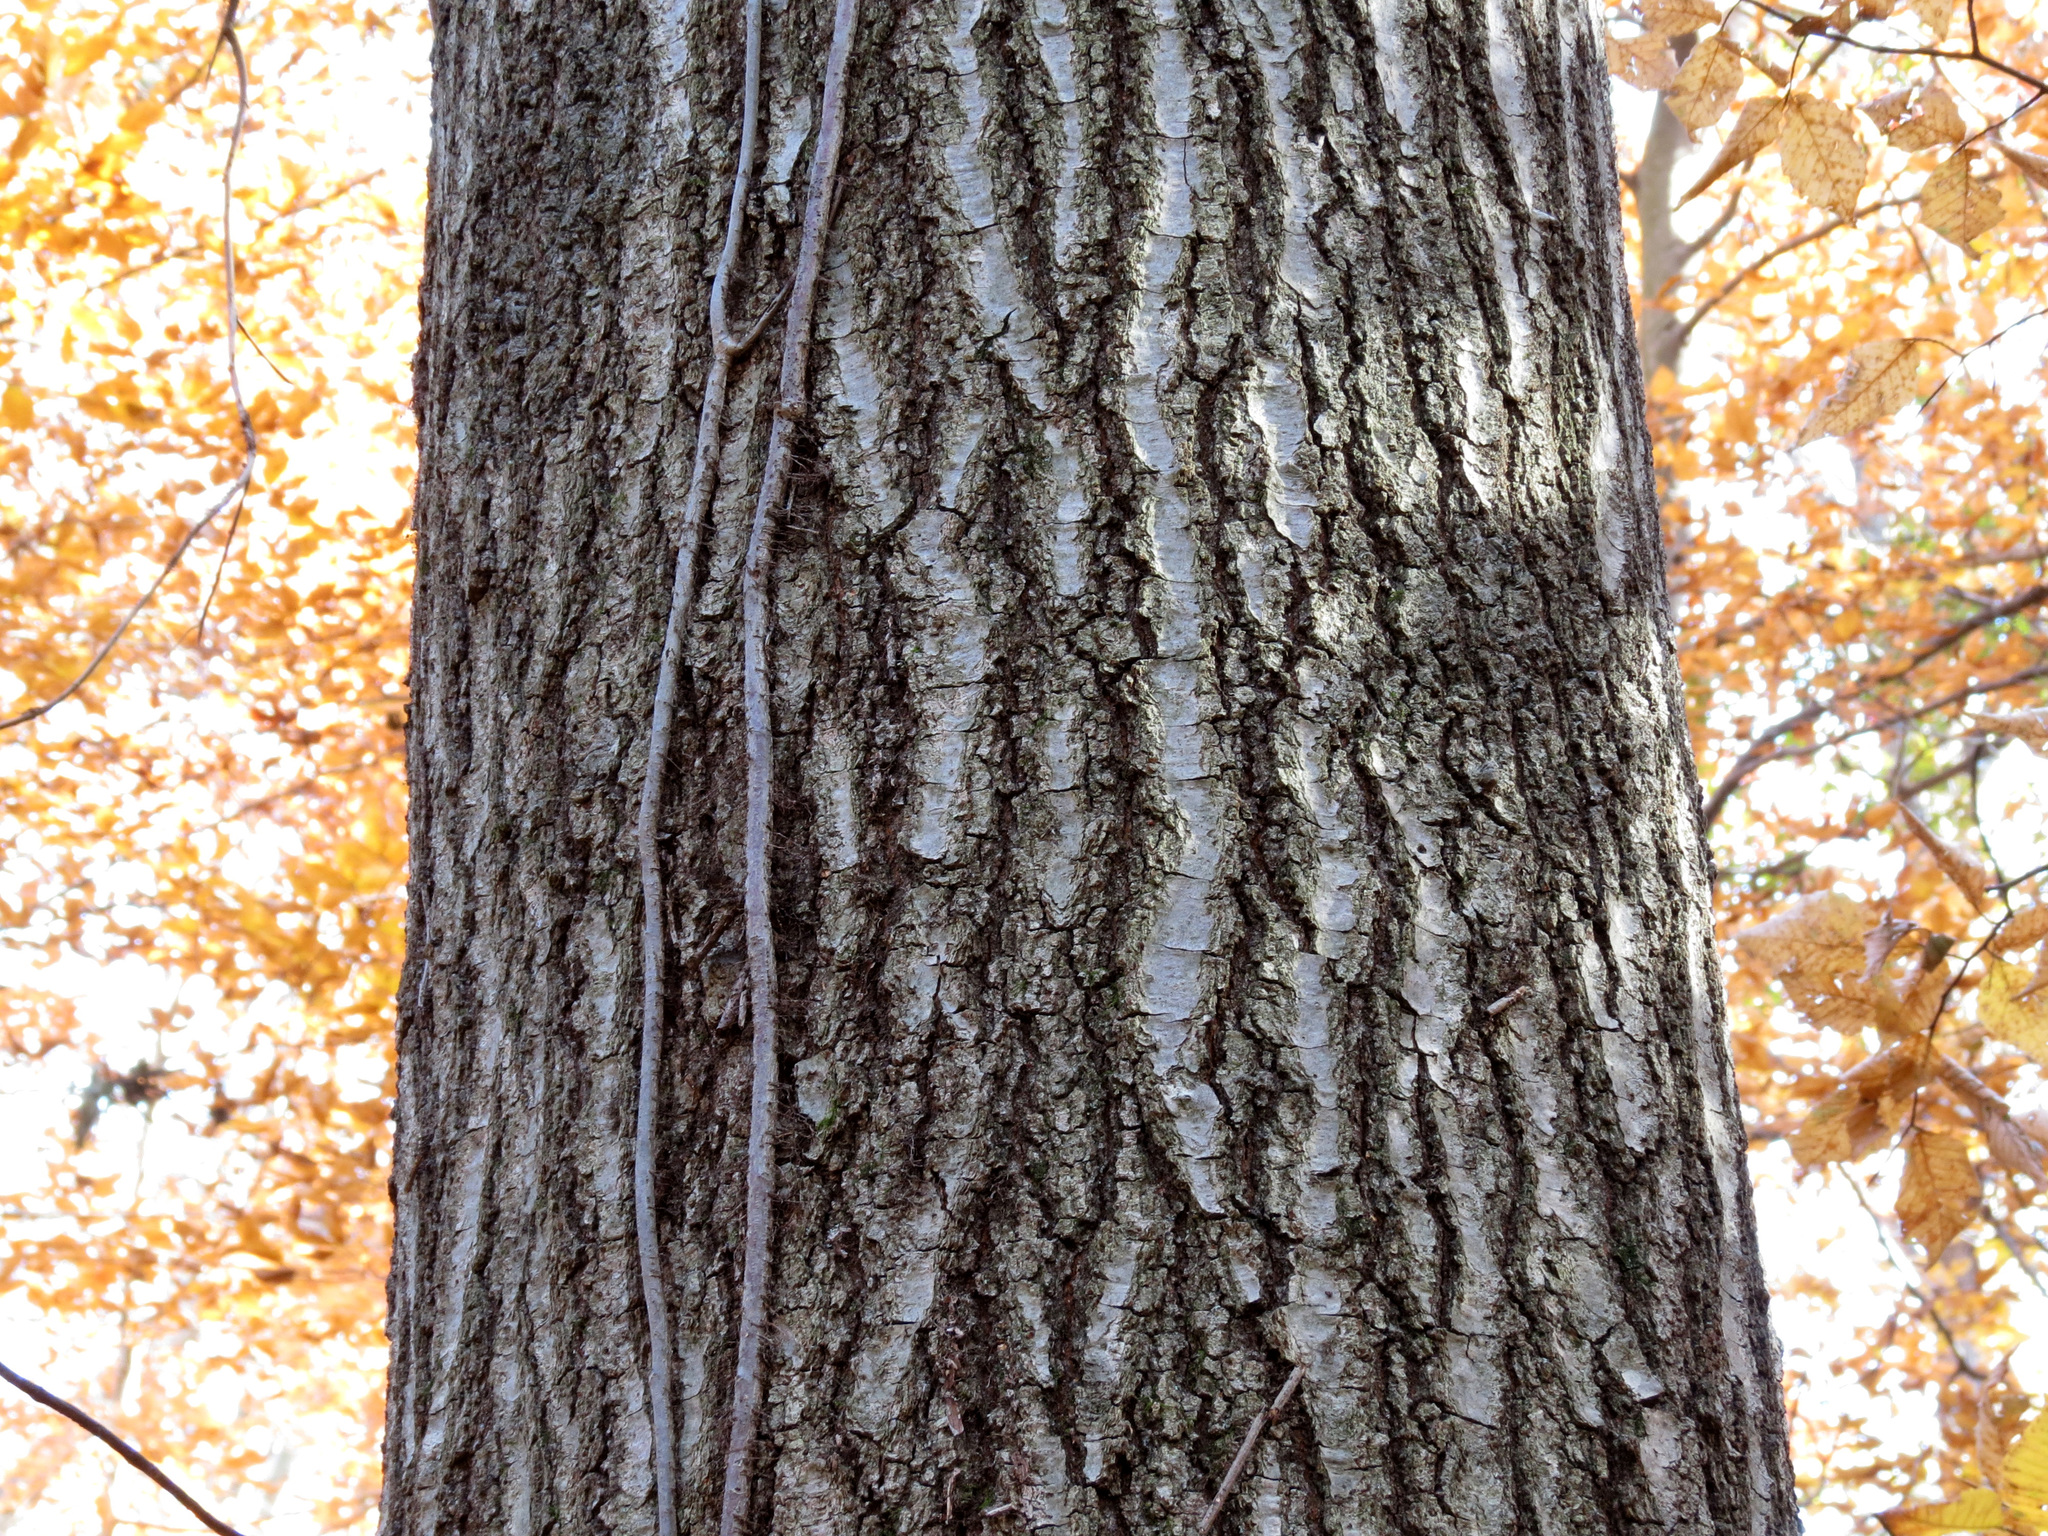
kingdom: Plantae
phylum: Tracheophyta
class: Magnoliopsida
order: Fagales
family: Fagaceae
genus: Quercus
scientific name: Quercus rubra
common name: Red oak
